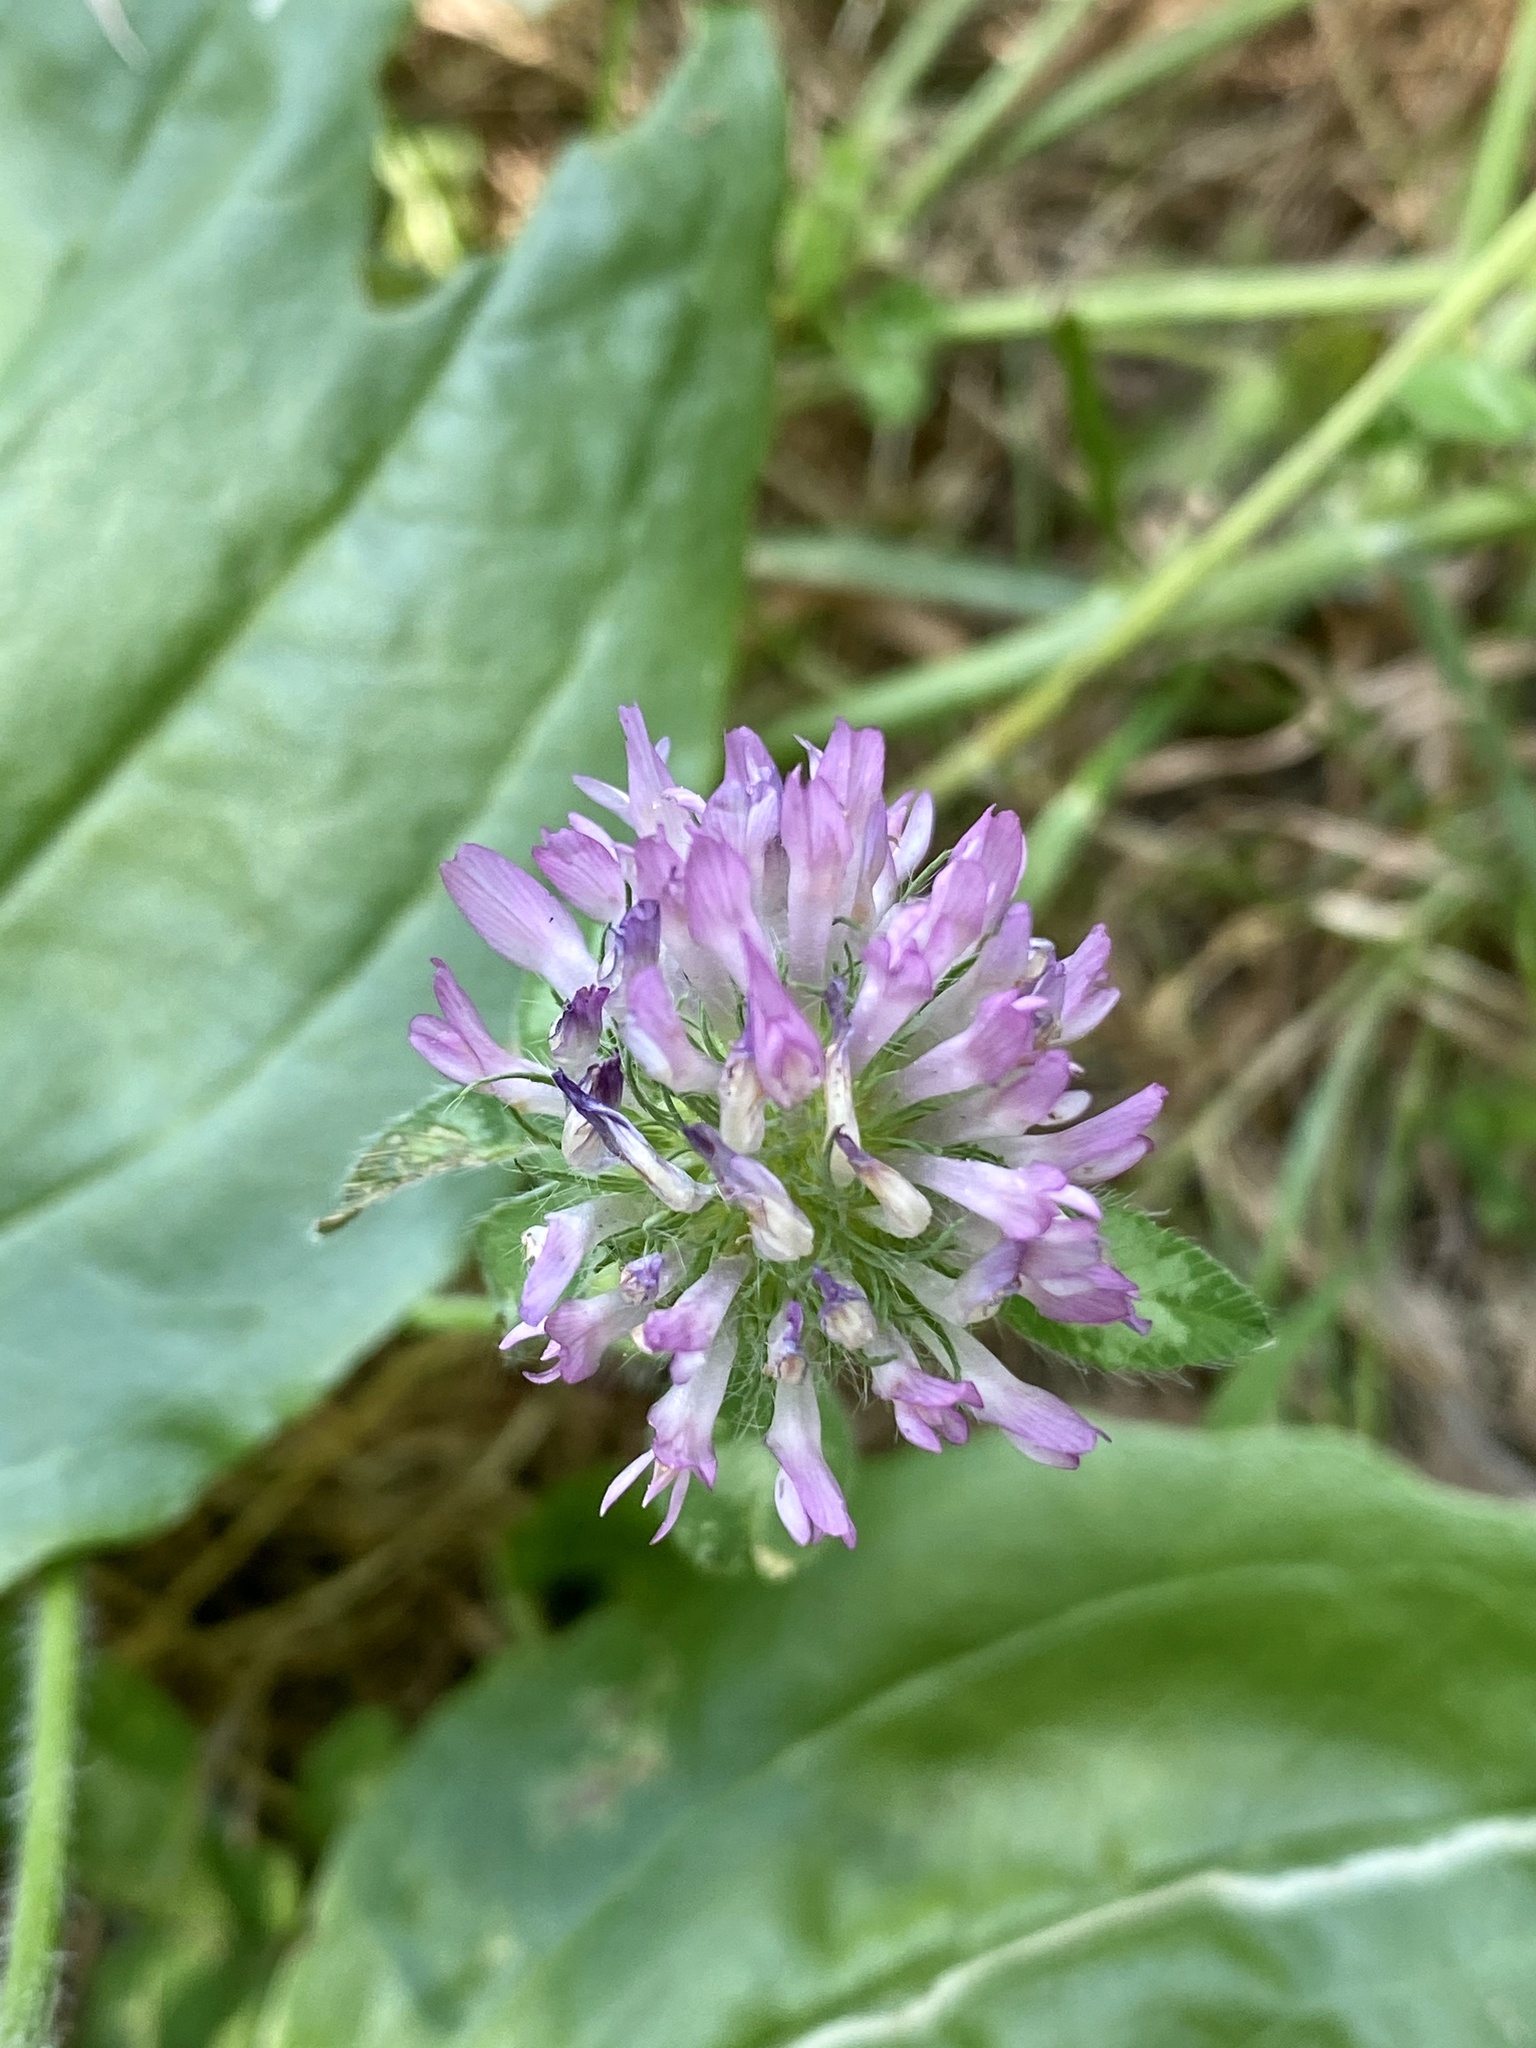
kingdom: Plantae
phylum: Tracheophyta
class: Magnoliopsida
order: Fabales
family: Fabaceae
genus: Trifolium
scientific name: Trifolium pratense
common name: Red clover
